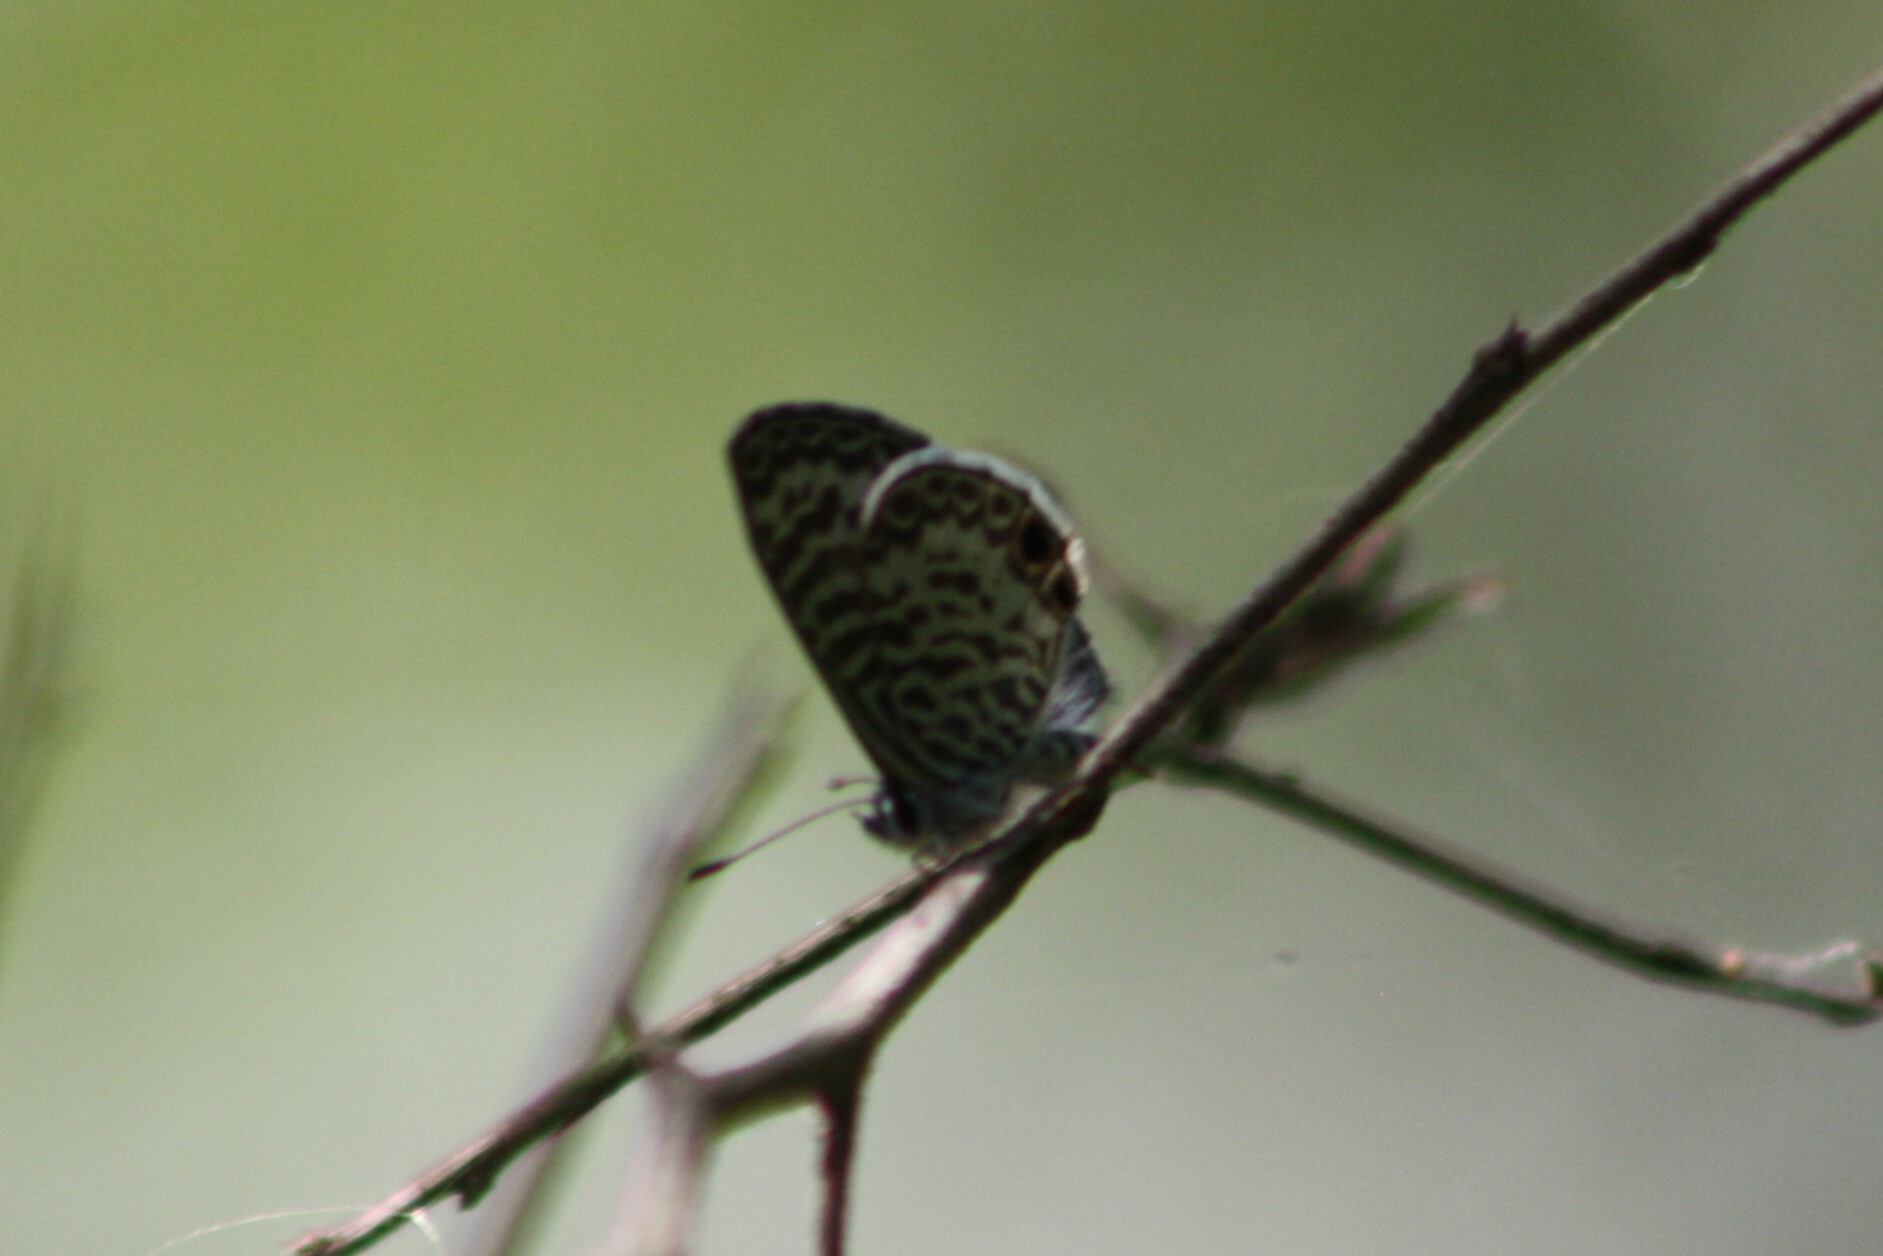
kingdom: Animalia
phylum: Arthropoda
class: Insecta
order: Lepidoptera
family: Lycaenidae
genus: Leptotes
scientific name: Leptotes cassius
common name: Cassius blue
